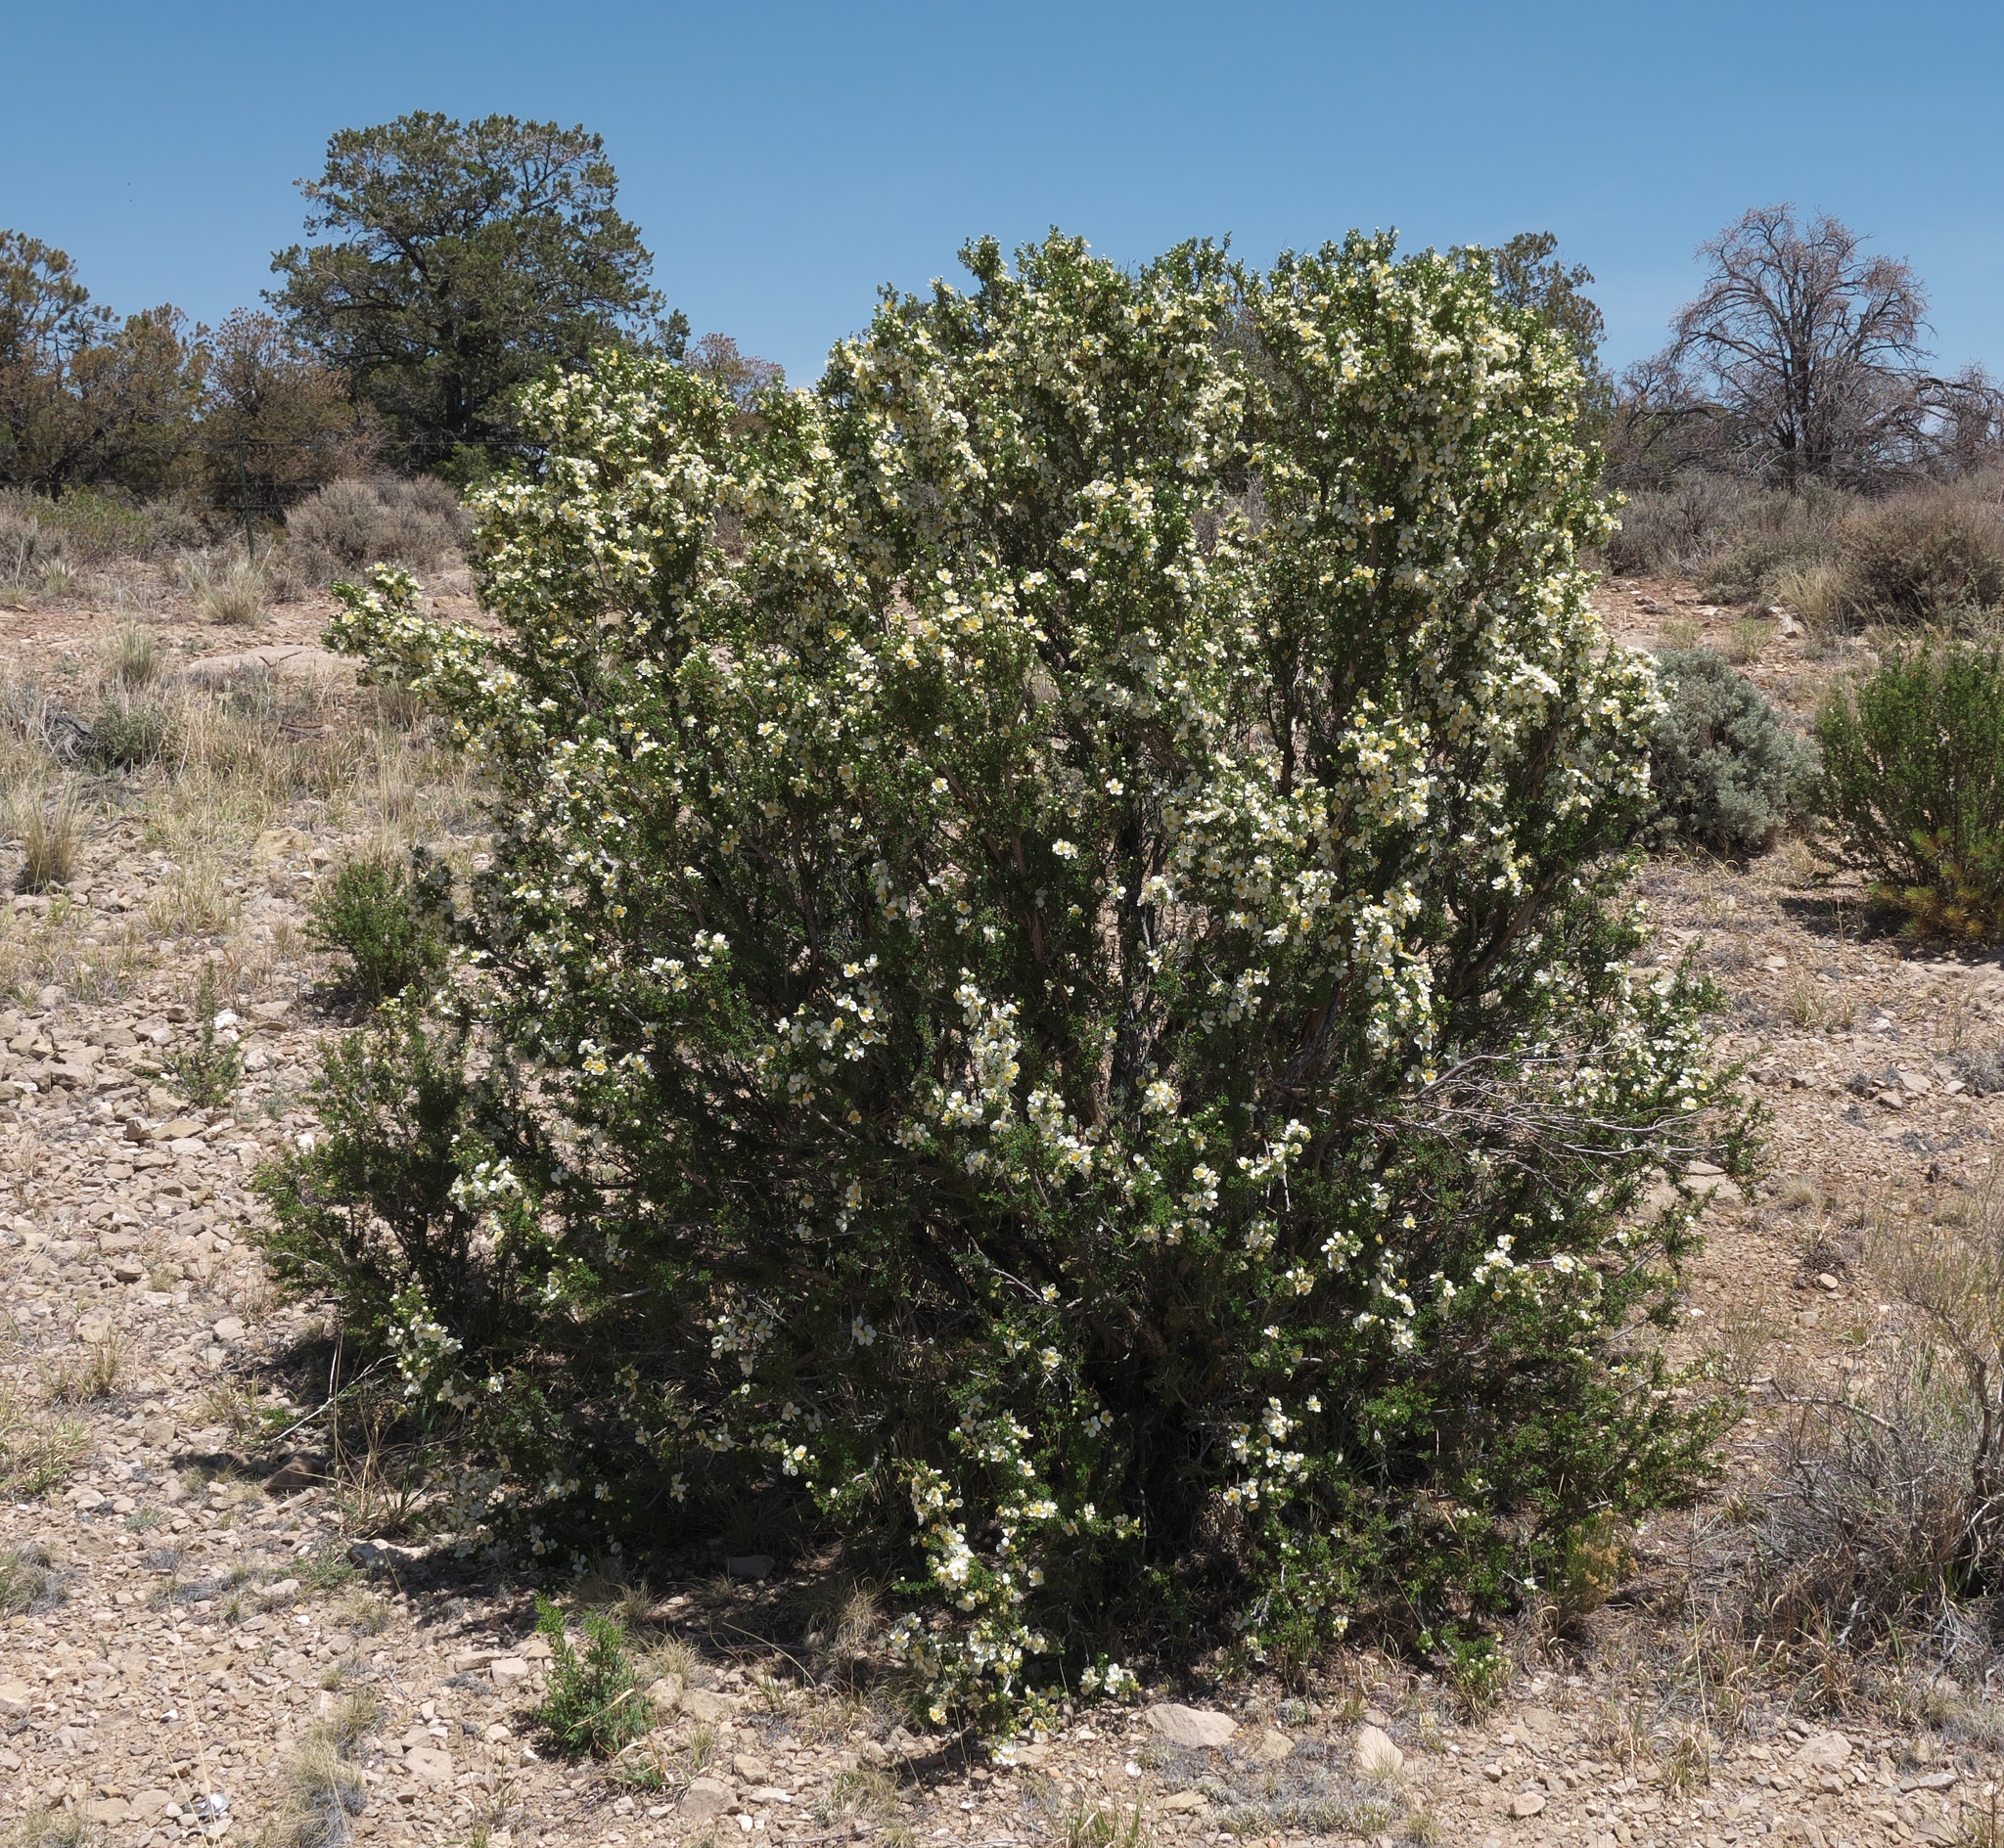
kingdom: Plantae
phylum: Tracheophyta
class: Magnoliopsida
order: Rosales
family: Rosaceae
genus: Purshia
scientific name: Purshia stansburiana
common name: Stansbury's cliffrose
